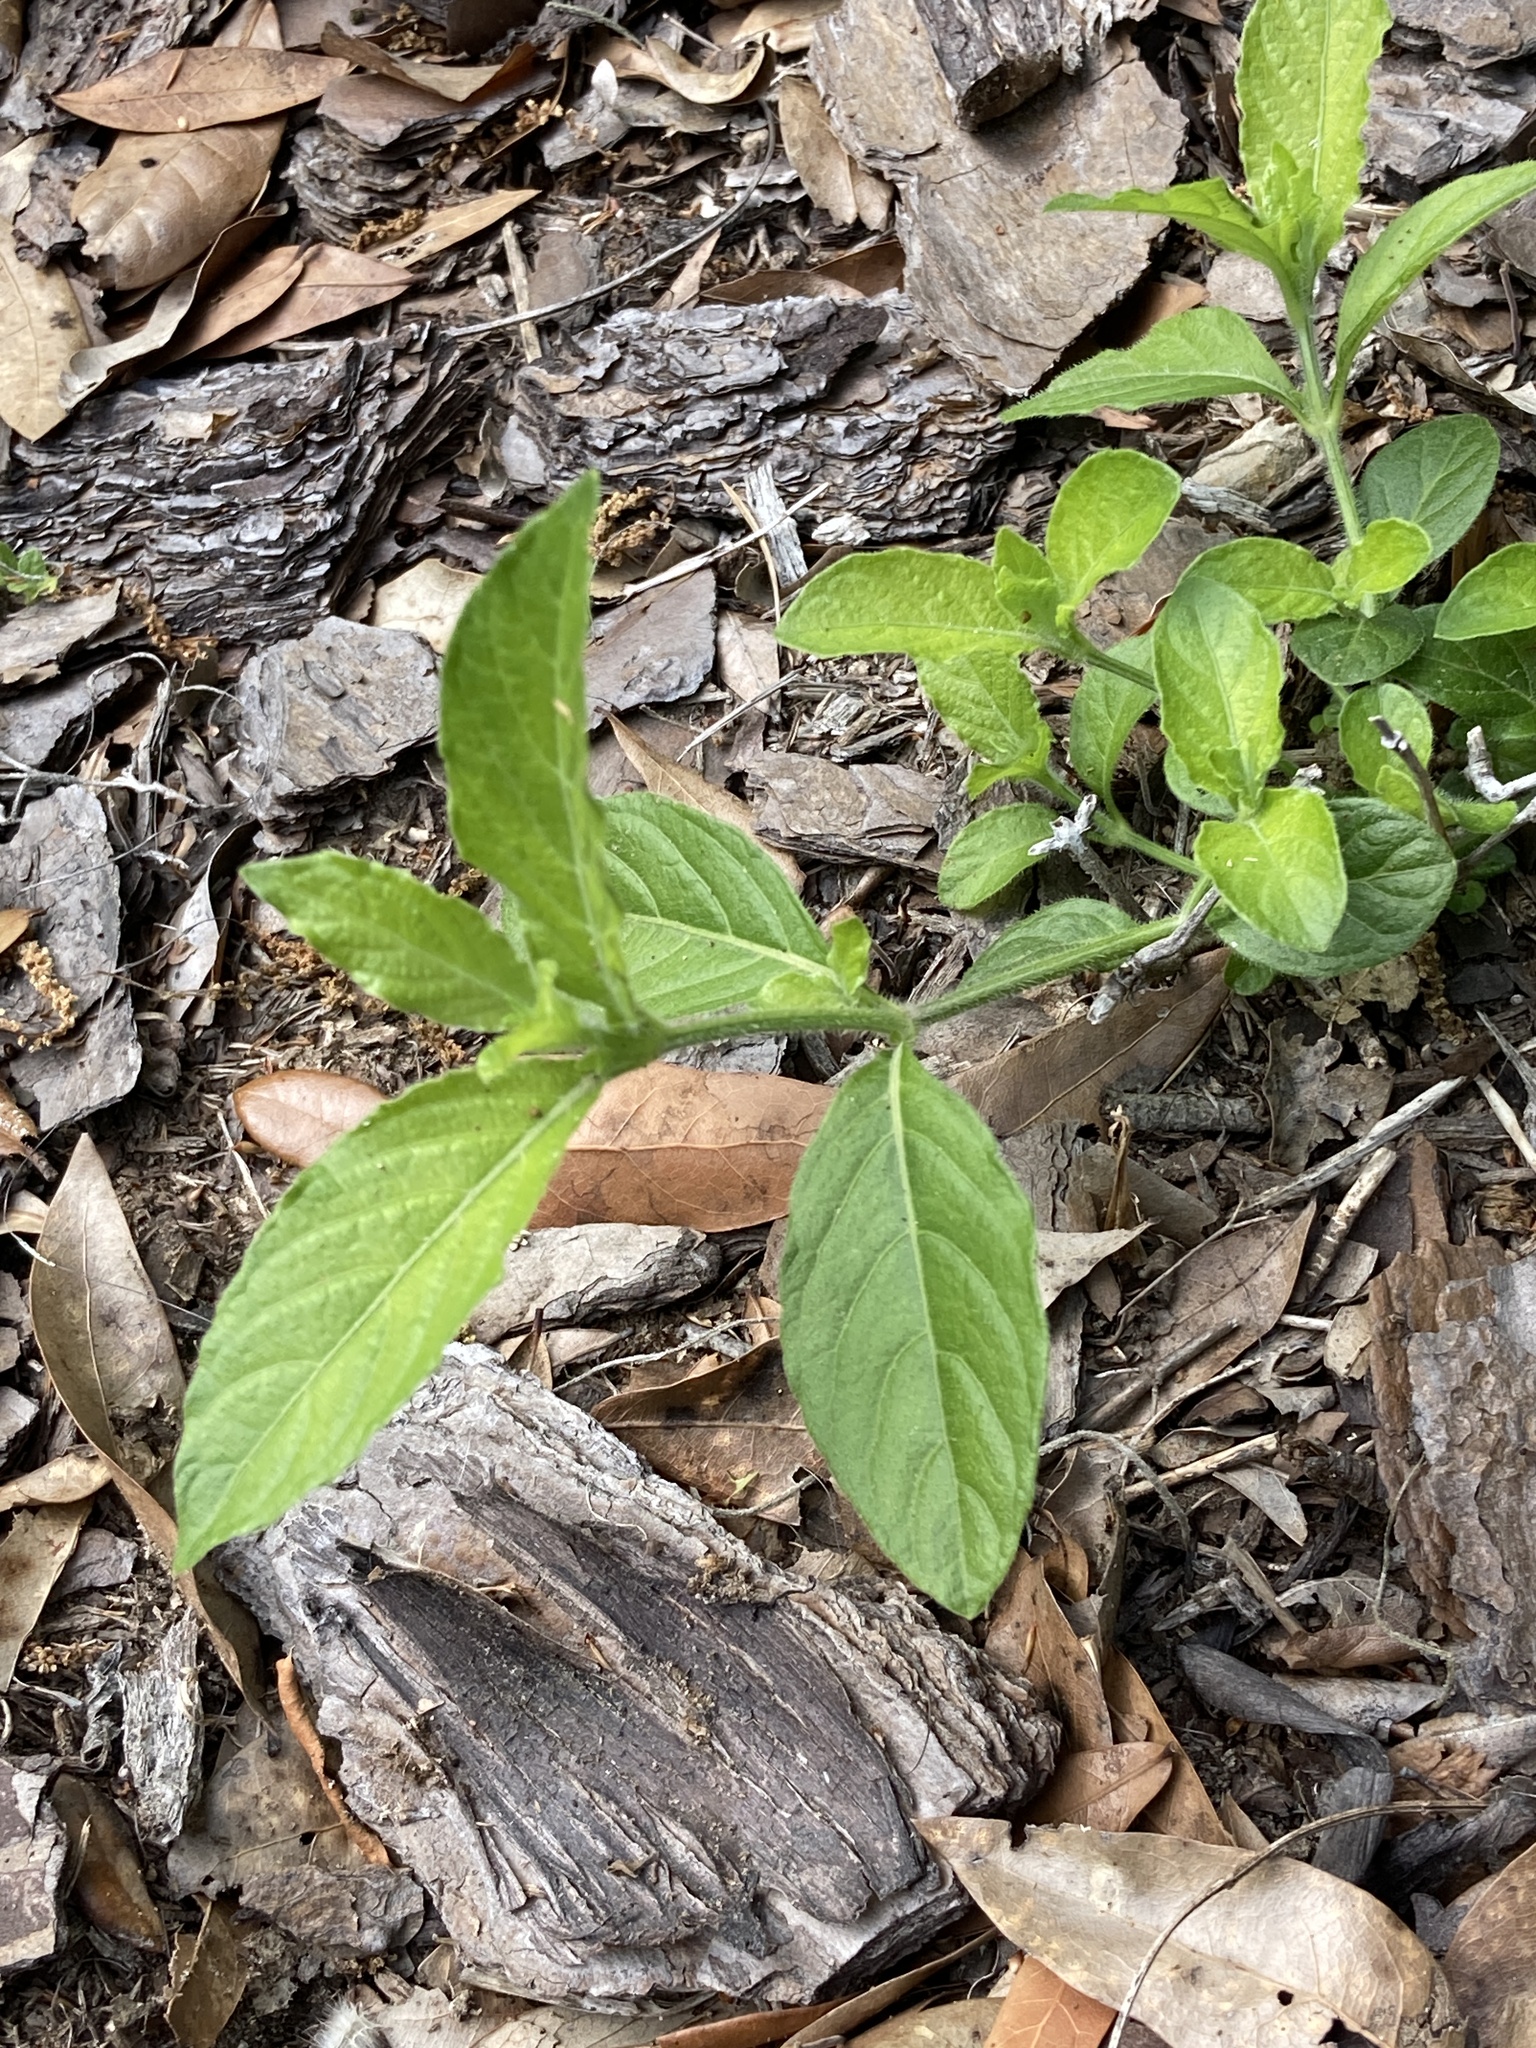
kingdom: Plantae
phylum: Tracheophyta
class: Magnoliopsida
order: Lamiales
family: Acanthaceae
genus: Ruellia
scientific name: Ruellia caroliniensis
